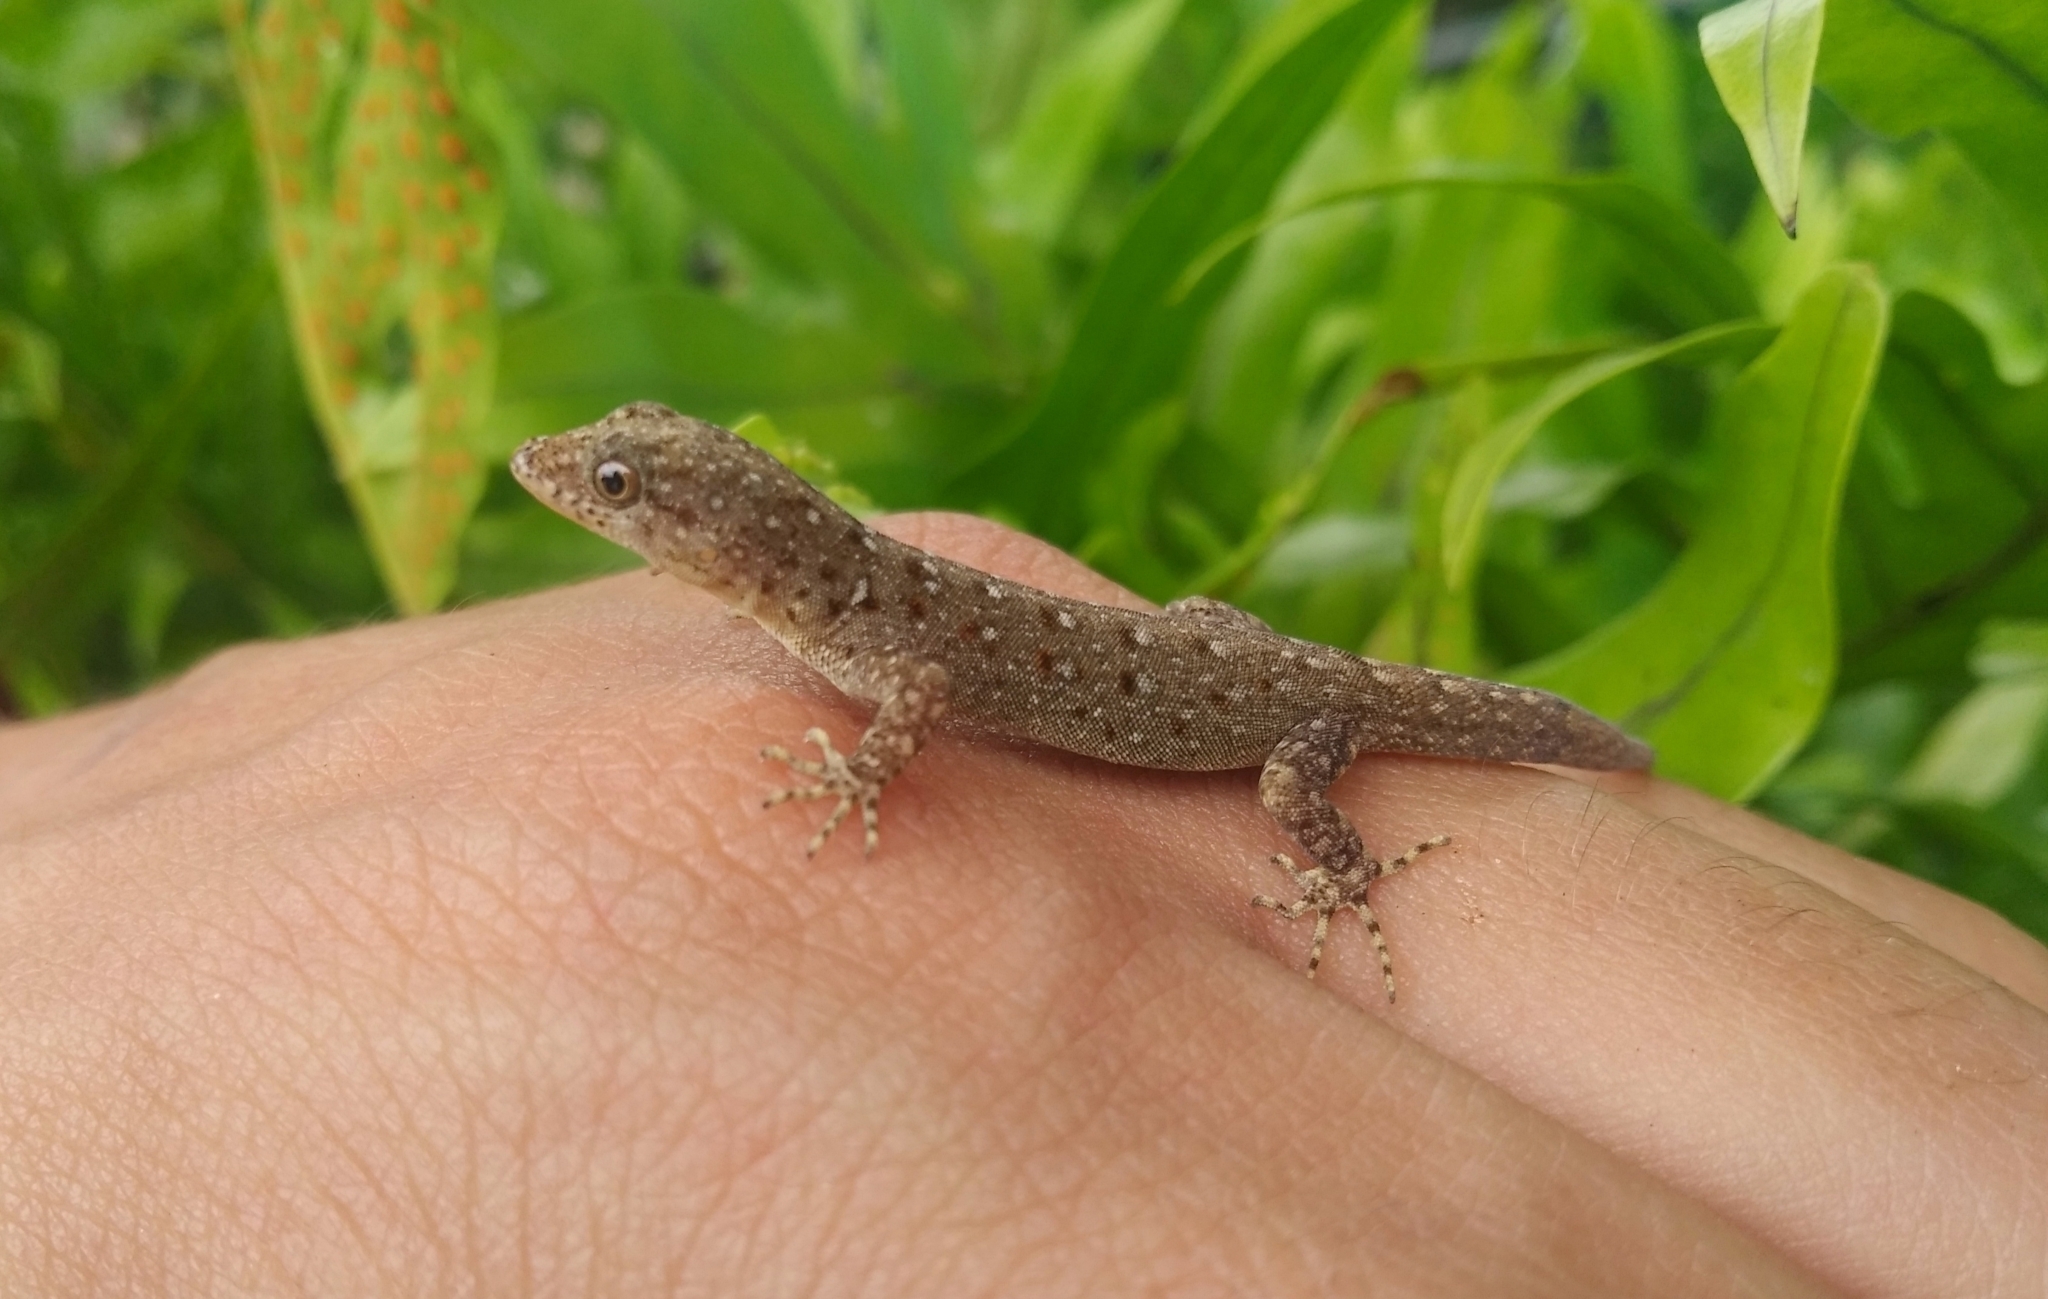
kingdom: Animalia
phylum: Chordata
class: Squamata
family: Sphaerodactylidae
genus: Gonatodes
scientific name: Gonatodes vittatus
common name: Wiegmann's striped gecko
